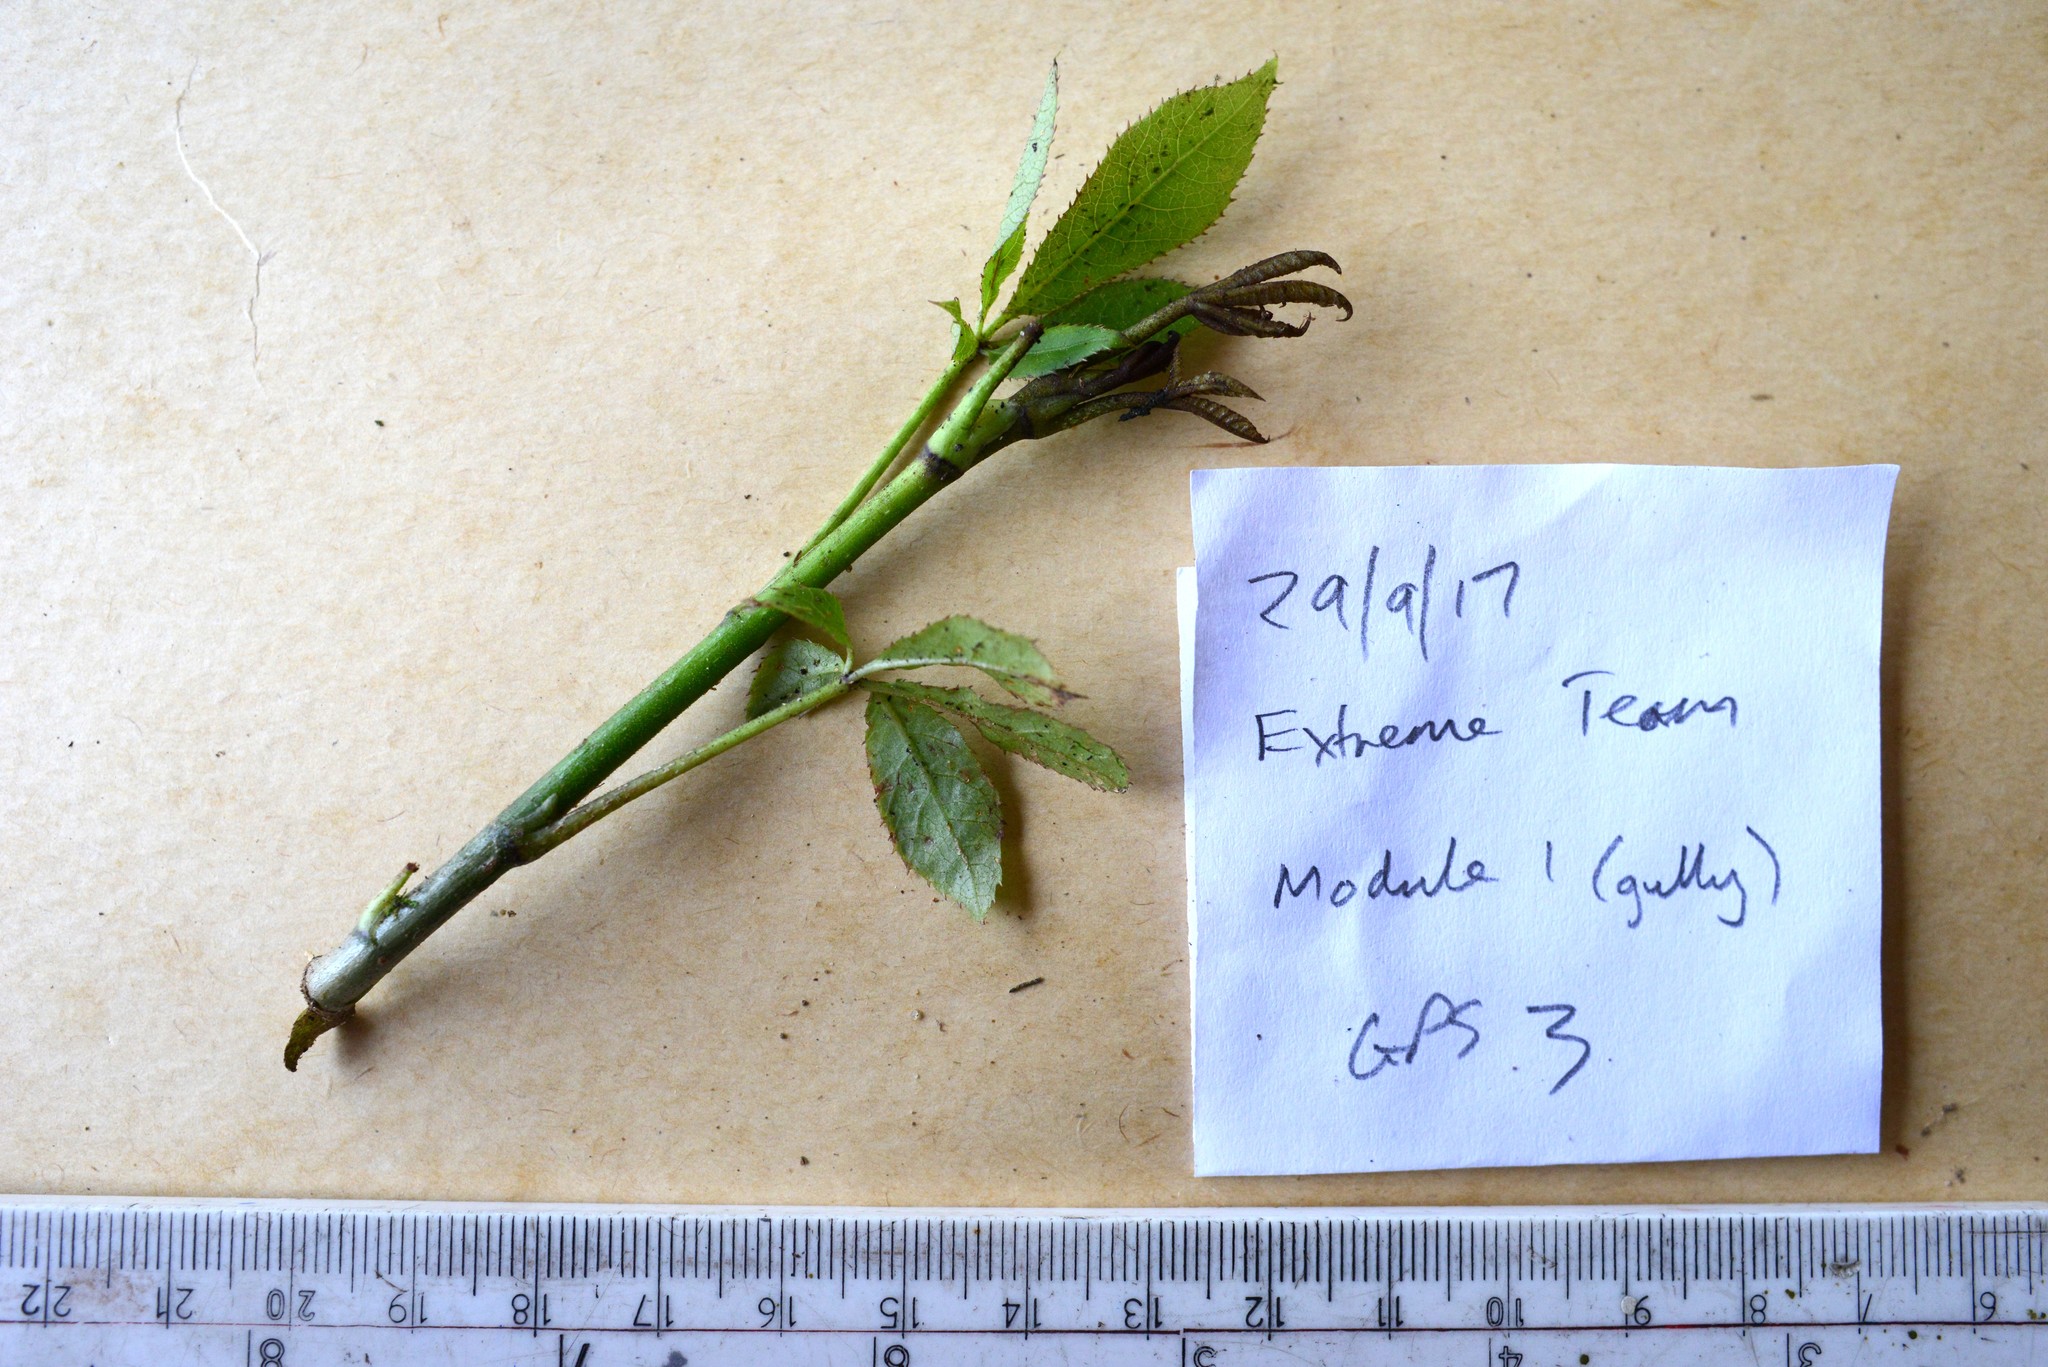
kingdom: Plantae
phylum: Tracheophyta
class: Magnoliopsida
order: Apiales
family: Araliaceae
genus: Schefflera
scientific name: Schefflera digitata
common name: Pate
